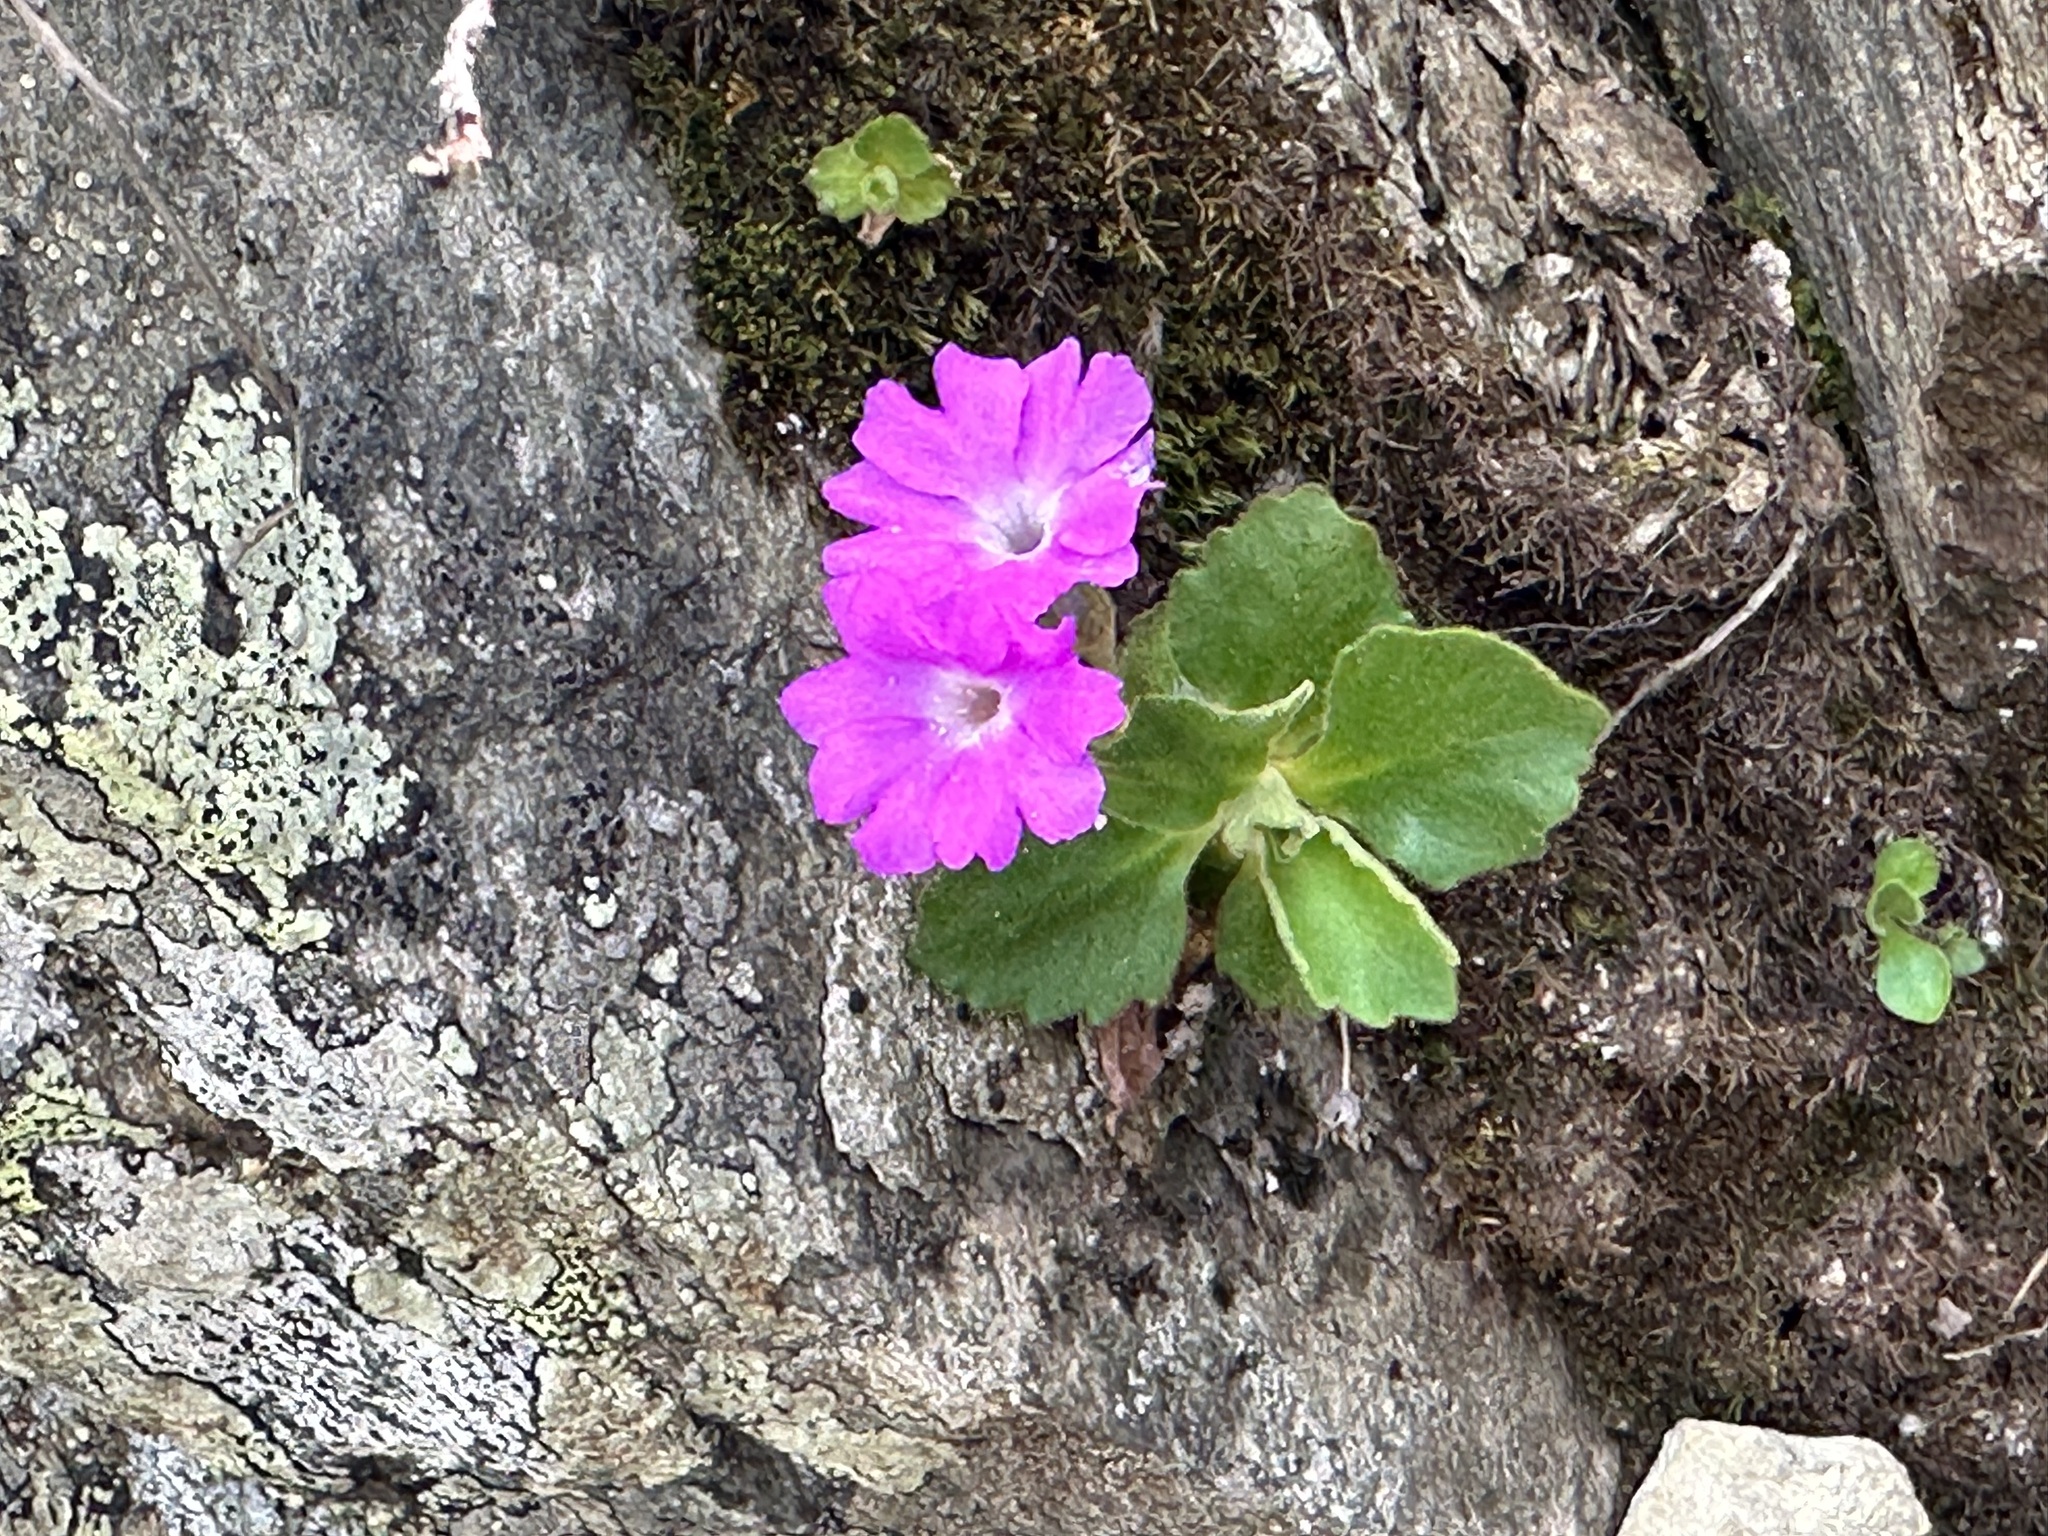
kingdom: Plantae
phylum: Tracheophyta
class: Magnoliopsida
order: Ericales
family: Primulaceae
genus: Primula
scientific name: Primula hirsuta
